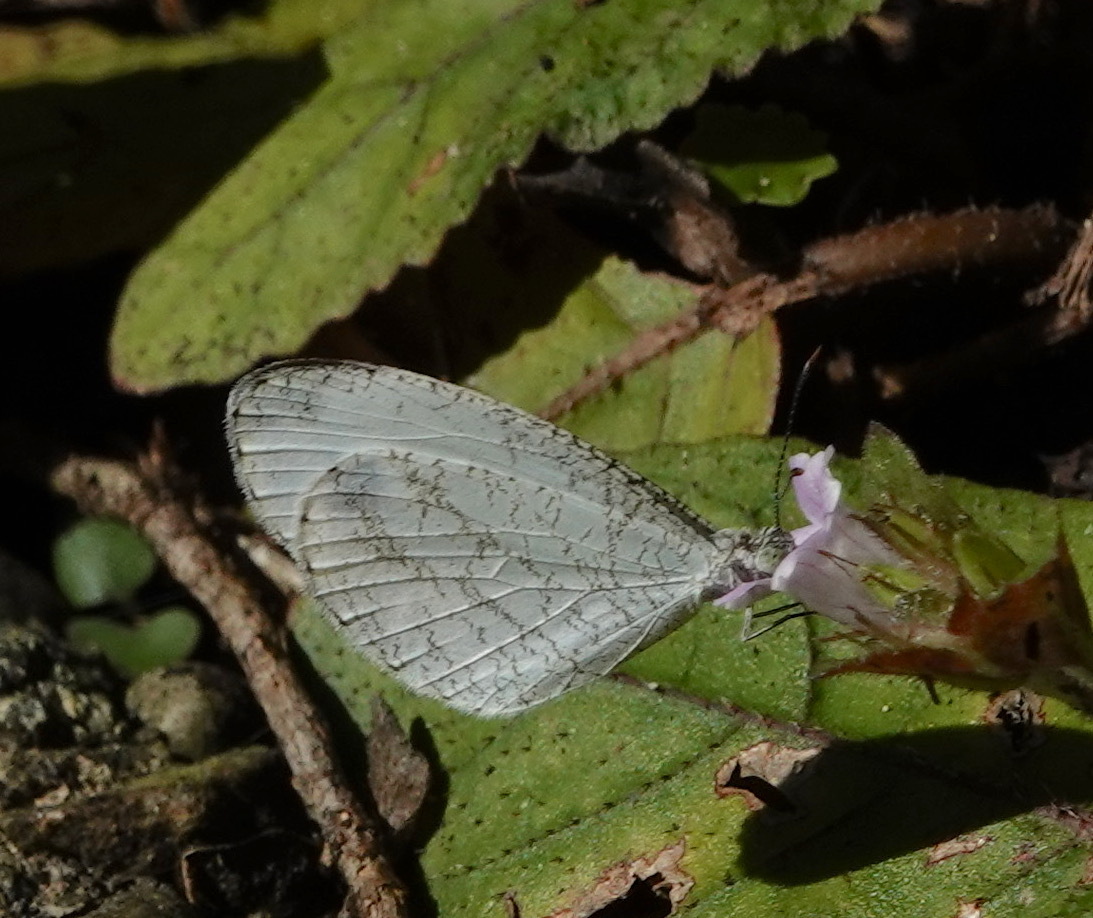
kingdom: Animalia
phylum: Arthropoda
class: Insecta
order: Lepidoptera
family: Pieridae
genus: Leptosia
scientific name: Leptosia nina
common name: Psyche
